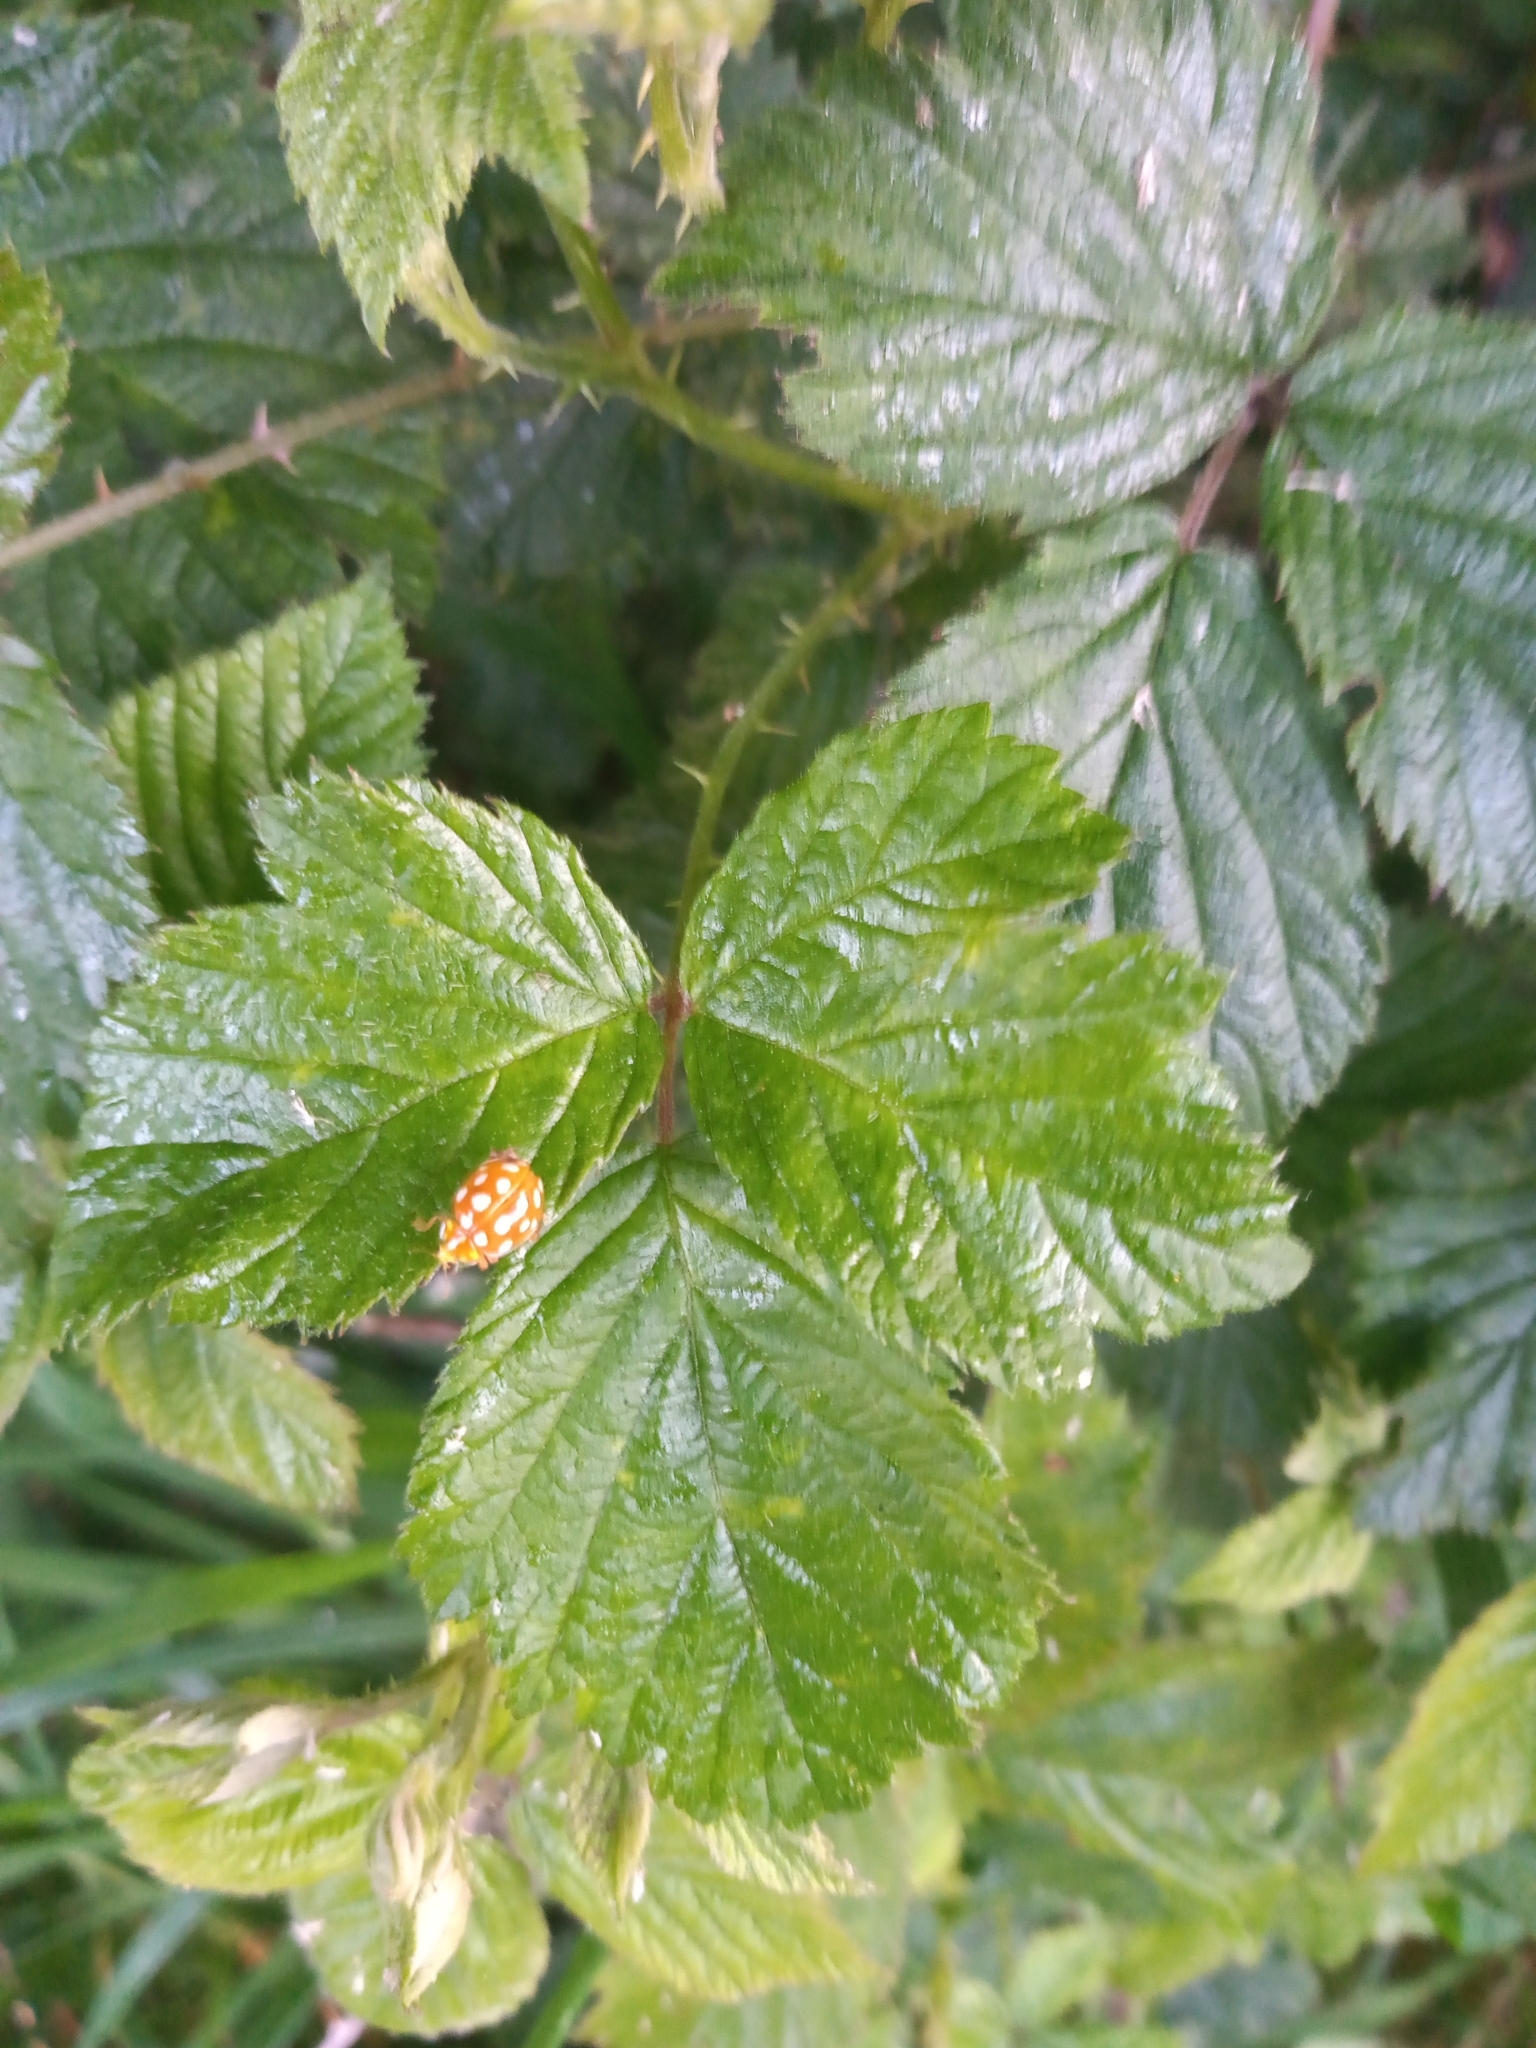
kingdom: Animalia
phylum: Arthropoda
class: Insecta
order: Coleoptera
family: Coccinellidae
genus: Halyzia
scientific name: Halyzia sedecimguttata
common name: Orange ladybird
